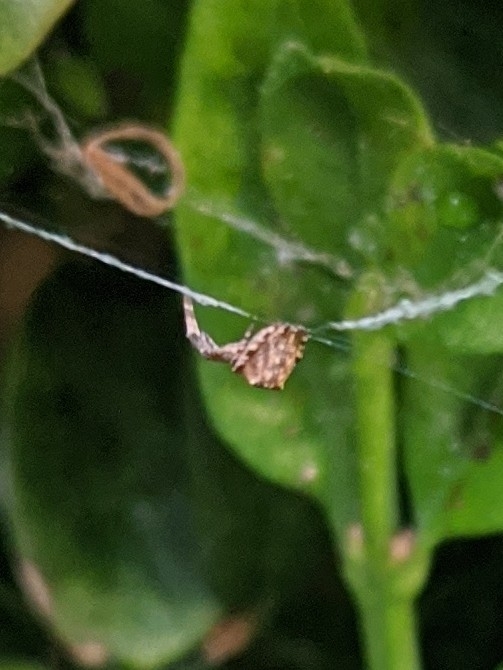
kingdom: Animalia
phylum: Arthropoda
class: Arachnida
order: Araneae
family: Uloboridae
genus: Uloborus
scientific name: Uloborus glomosus
